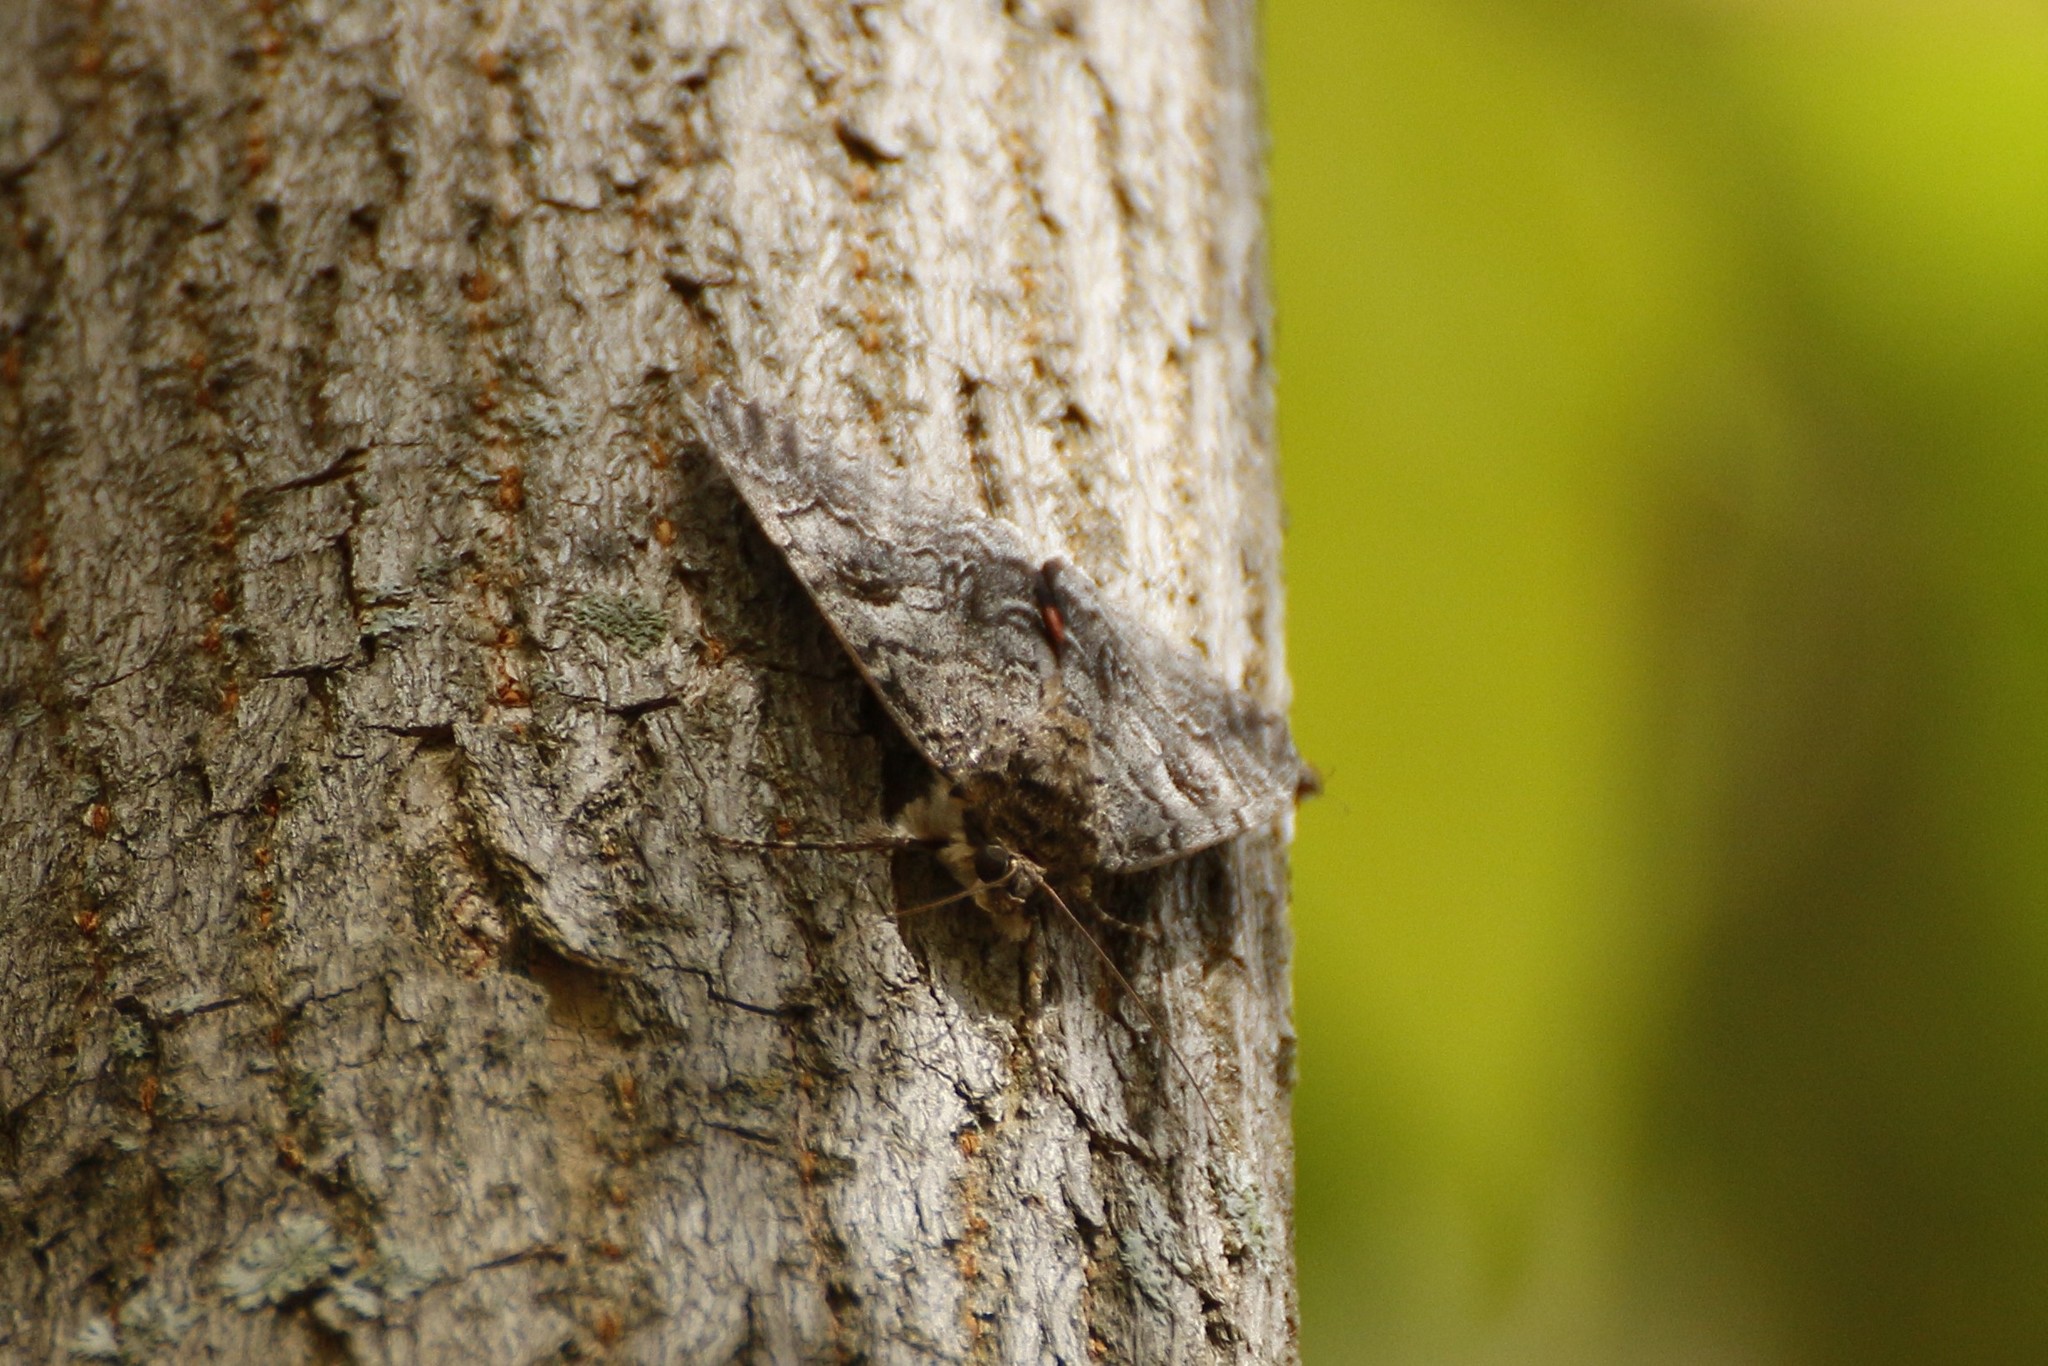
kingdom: Animalia
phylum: Arthropoda
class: Insecta
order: Lepidoptera
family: Erebidae
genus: Catocala
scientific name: Catocala nupta
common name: Red underwing
